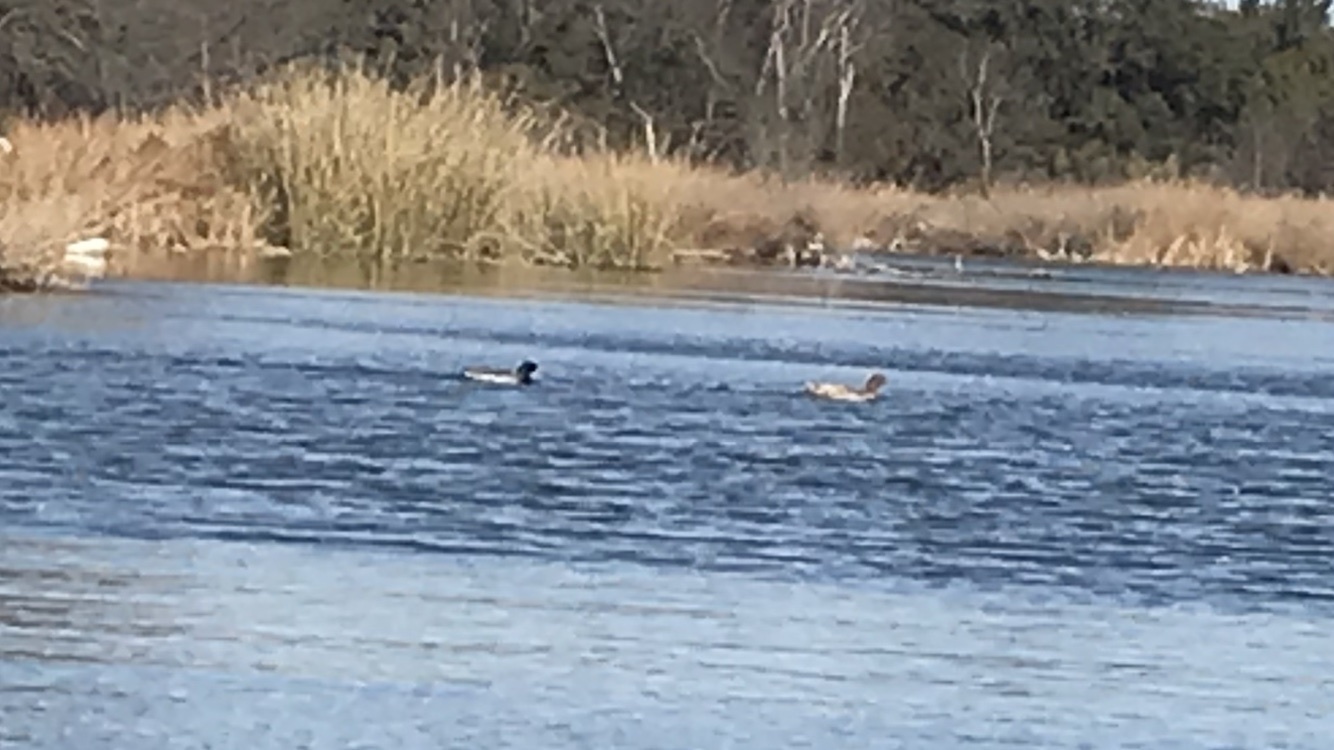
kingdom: Animalia
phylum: Chordata
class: Aves
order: Anseriformes
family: Anatidae
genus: Anas
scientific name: Anas platyrhynchos
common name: Mallard
